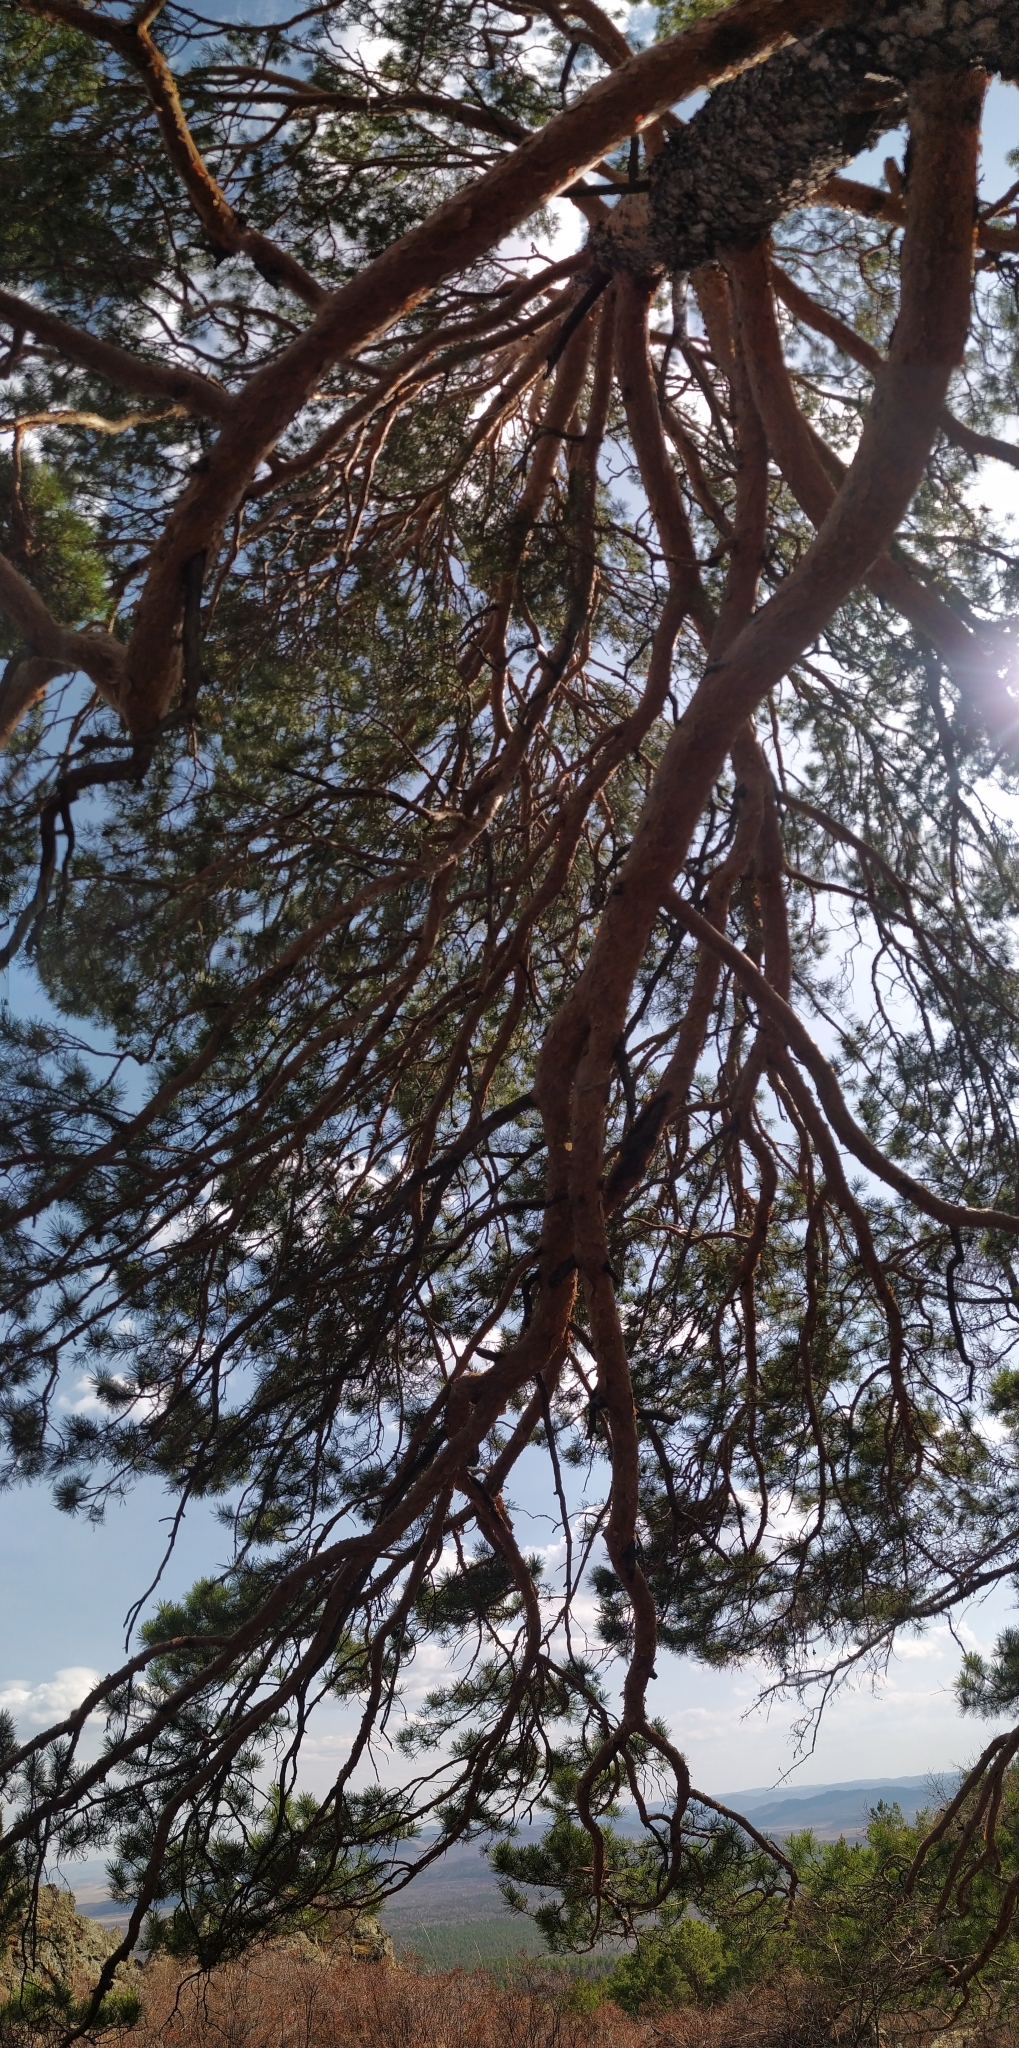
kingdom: Plantae
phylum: Tracheophyta
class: Pinopsida
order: Pinales
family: Pinaceae
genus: Pinus
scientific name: Pinus sylvestris
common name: Scots pine
